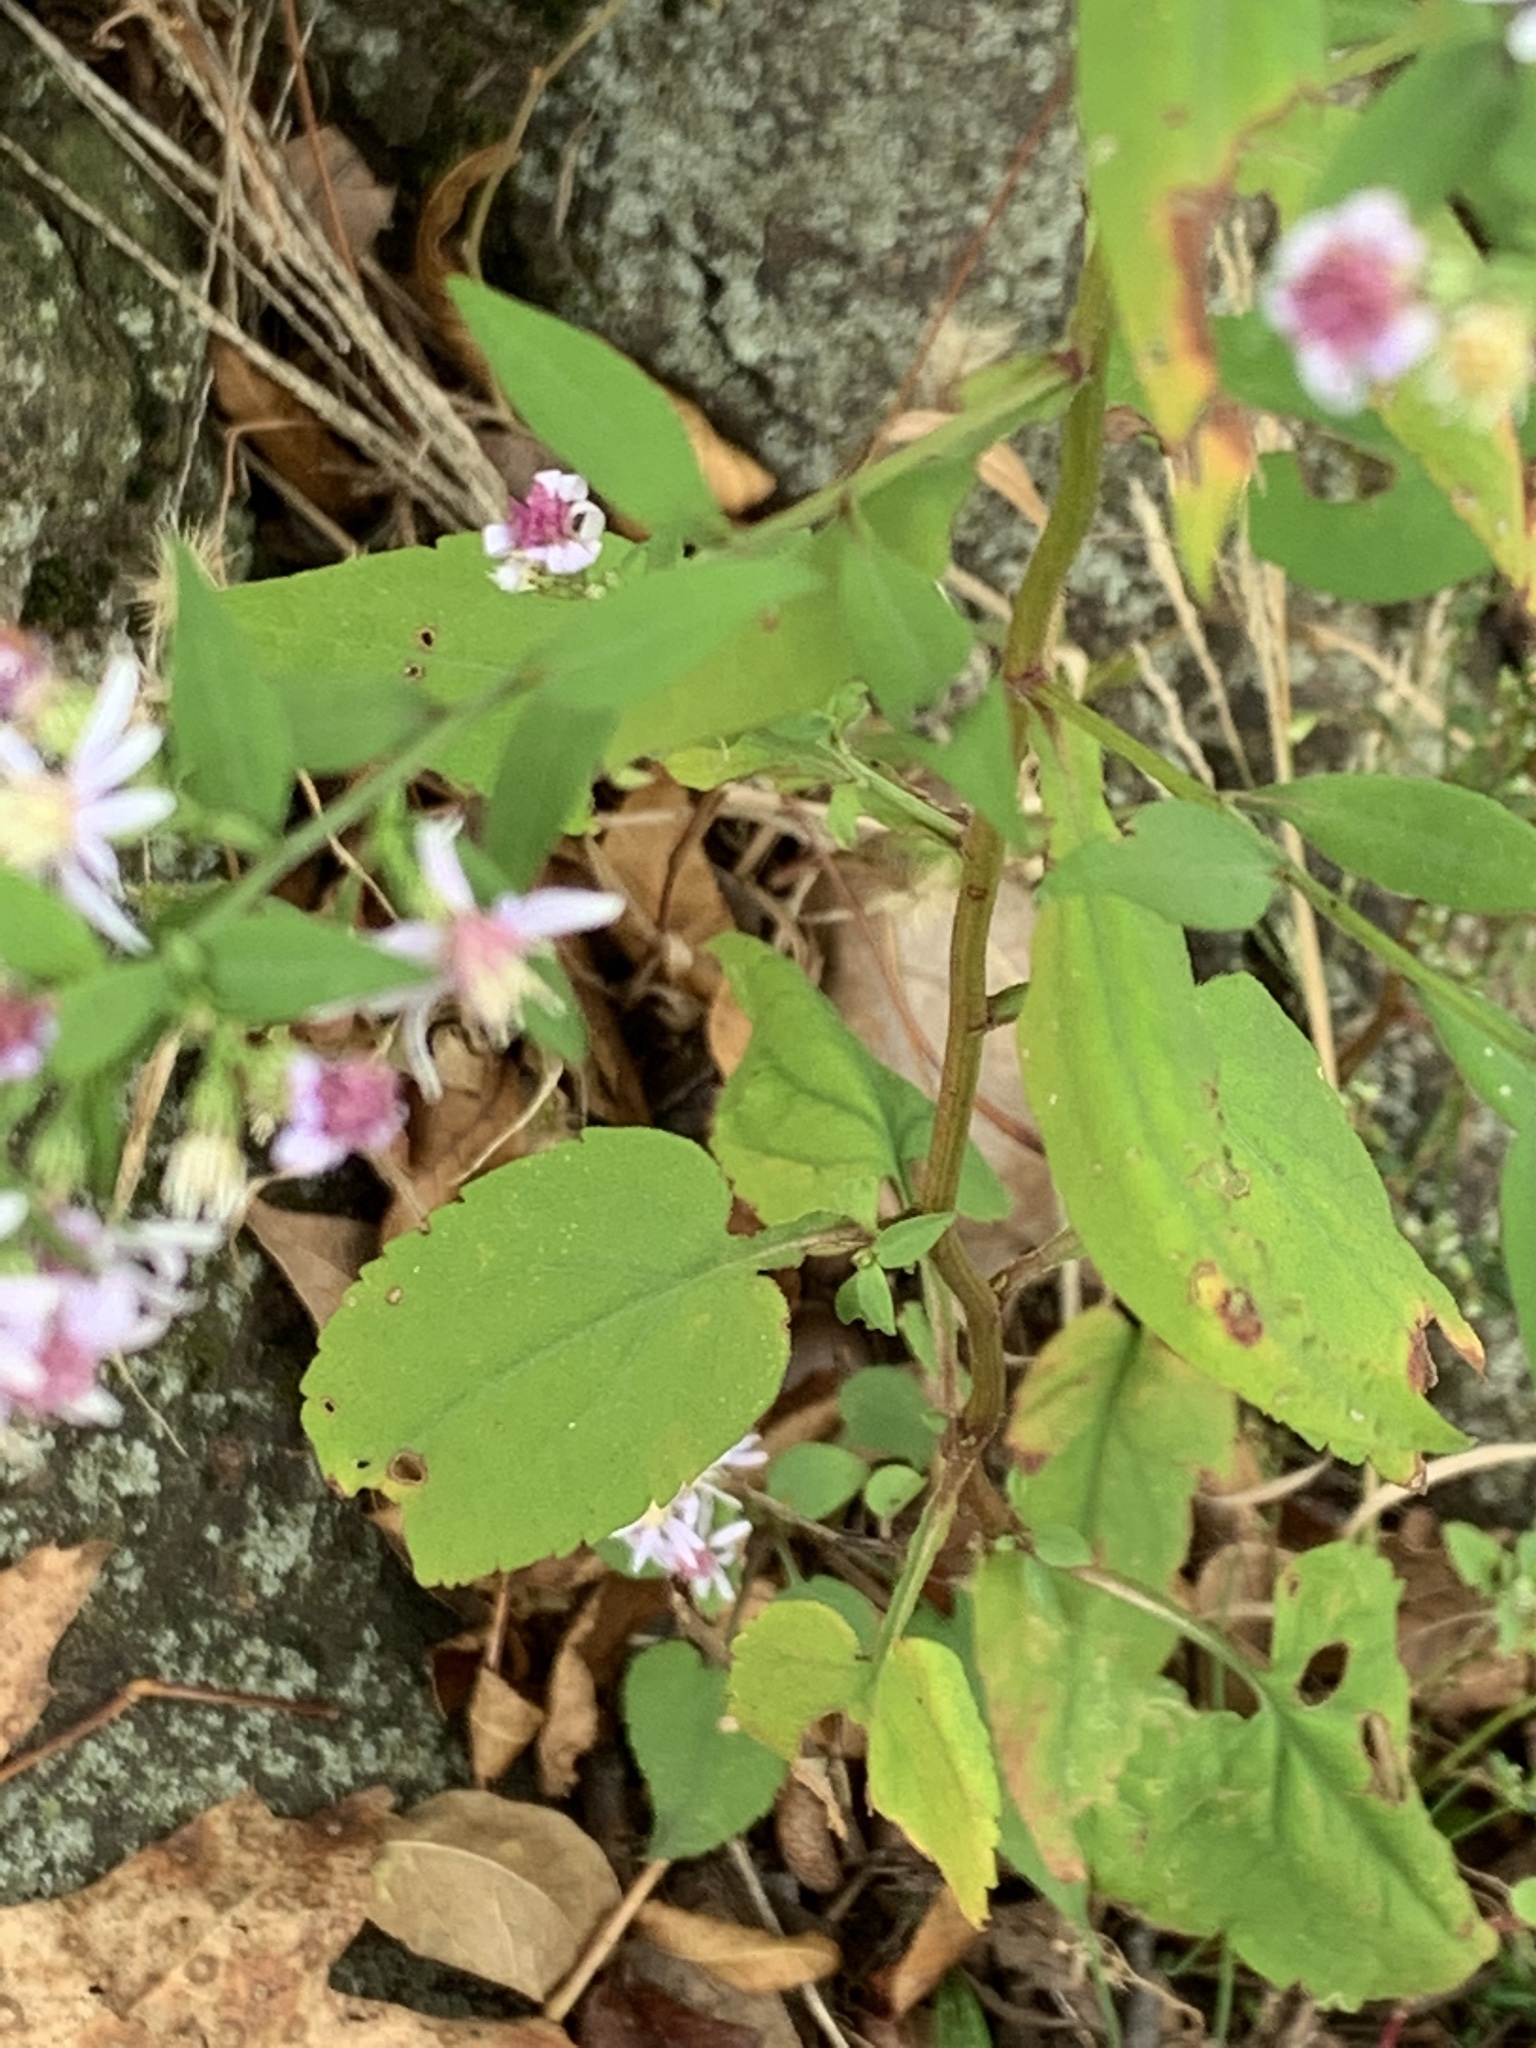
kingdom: Plantae
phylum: Tracheophyta
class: Magnoliopsida
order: Asterales
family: Asteraceae
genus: Symphyotrichum
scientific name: Symphyotrichum cordifolium
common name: Beeweed
